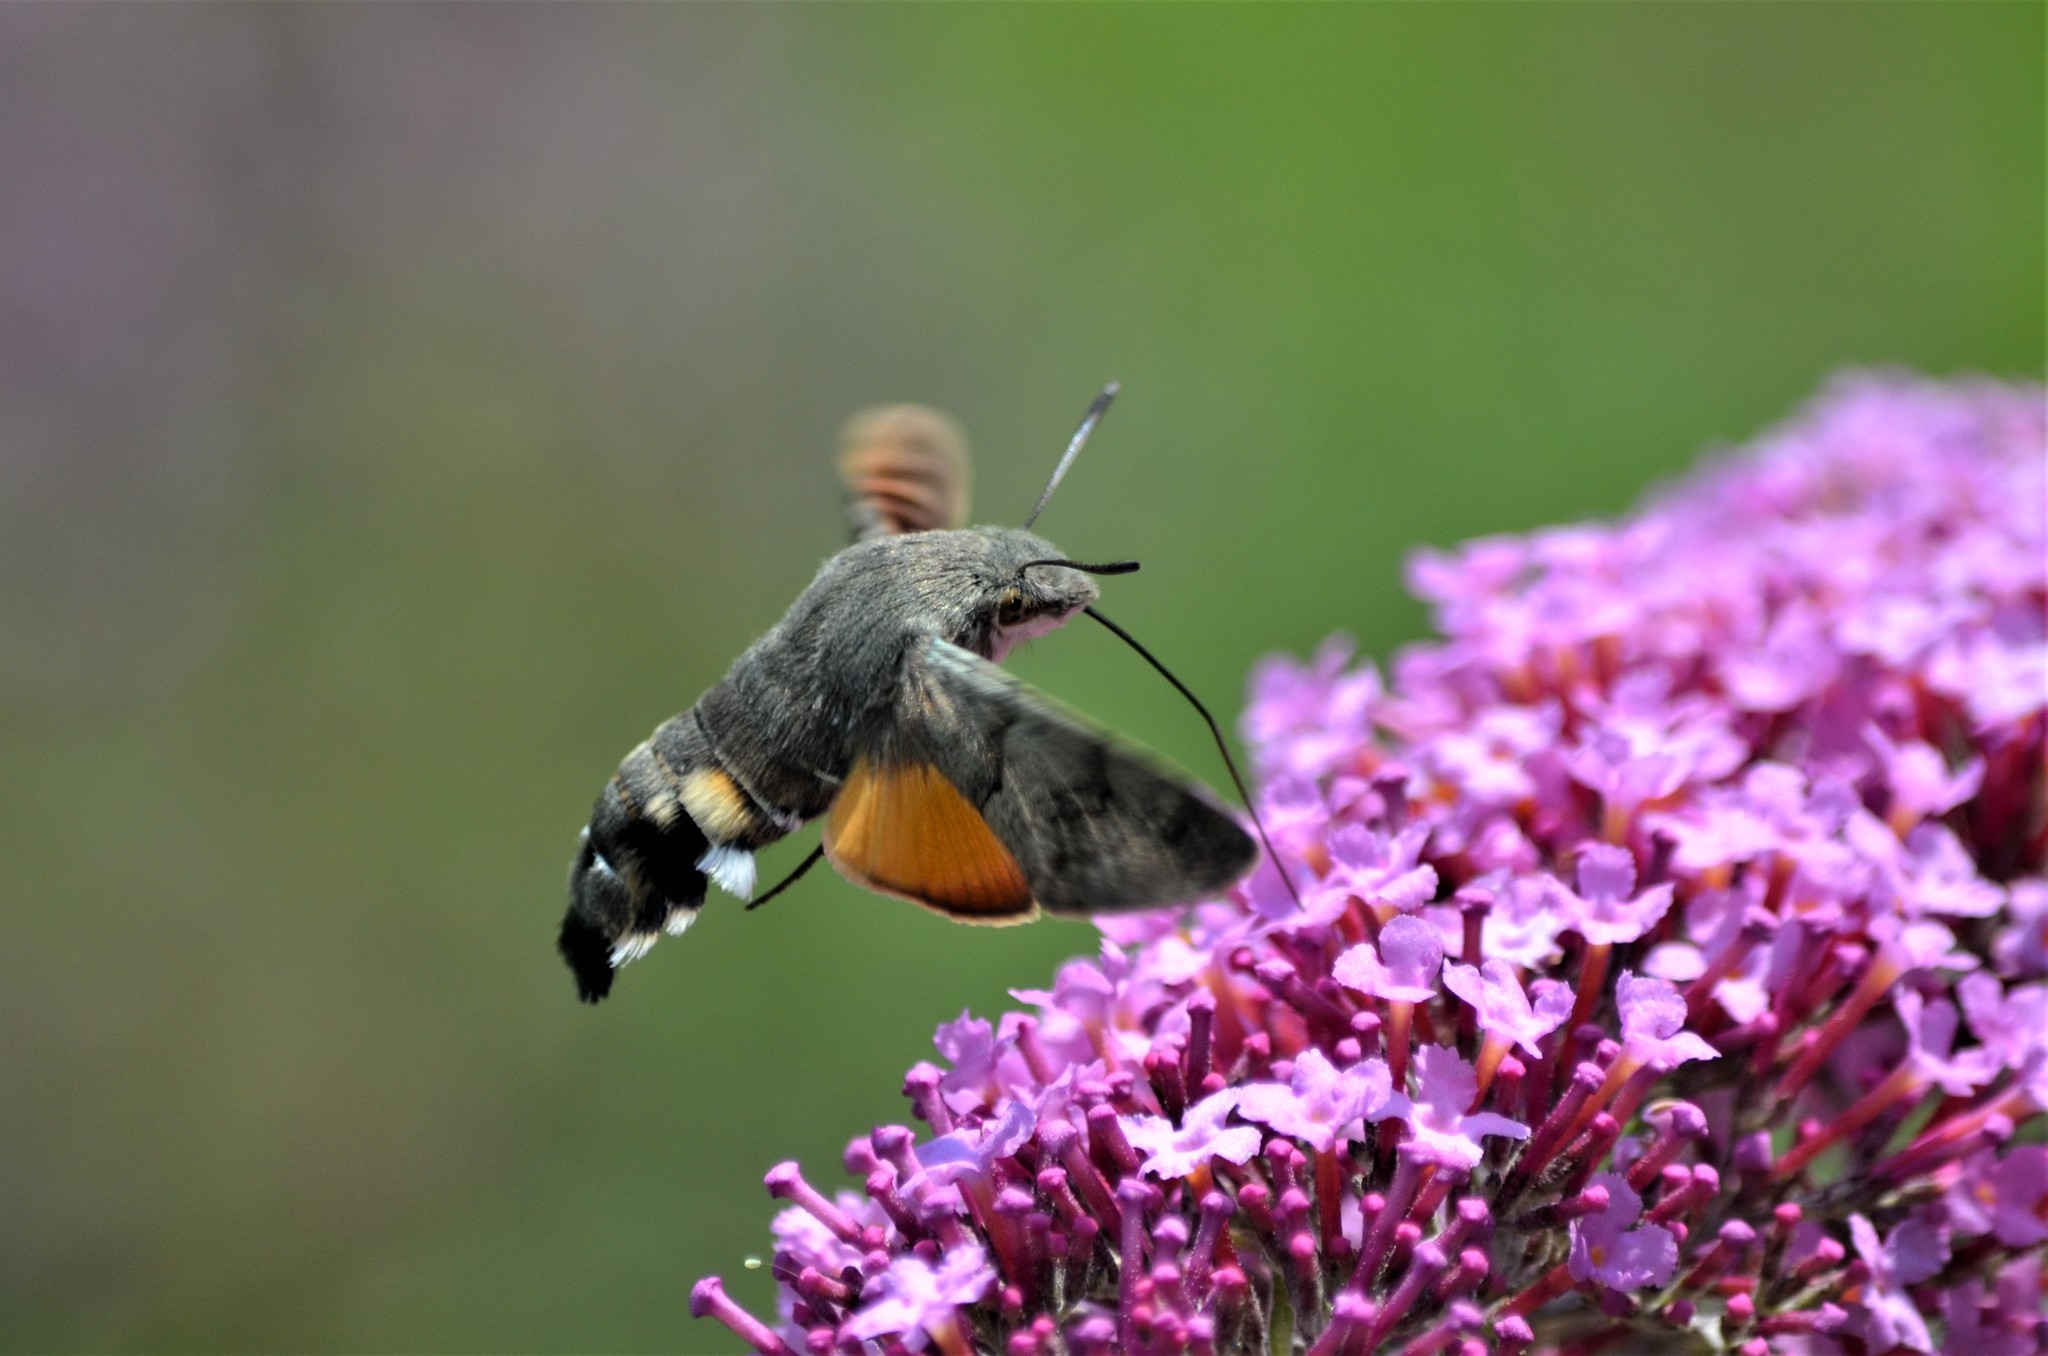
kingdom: Animalia
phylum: Arthropoda
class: Insecta
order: Lepidoptera
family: Sphingidae
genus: Macroglossum
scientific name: Macroglossum stellatarum
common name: Humming-bird hawk-moth
